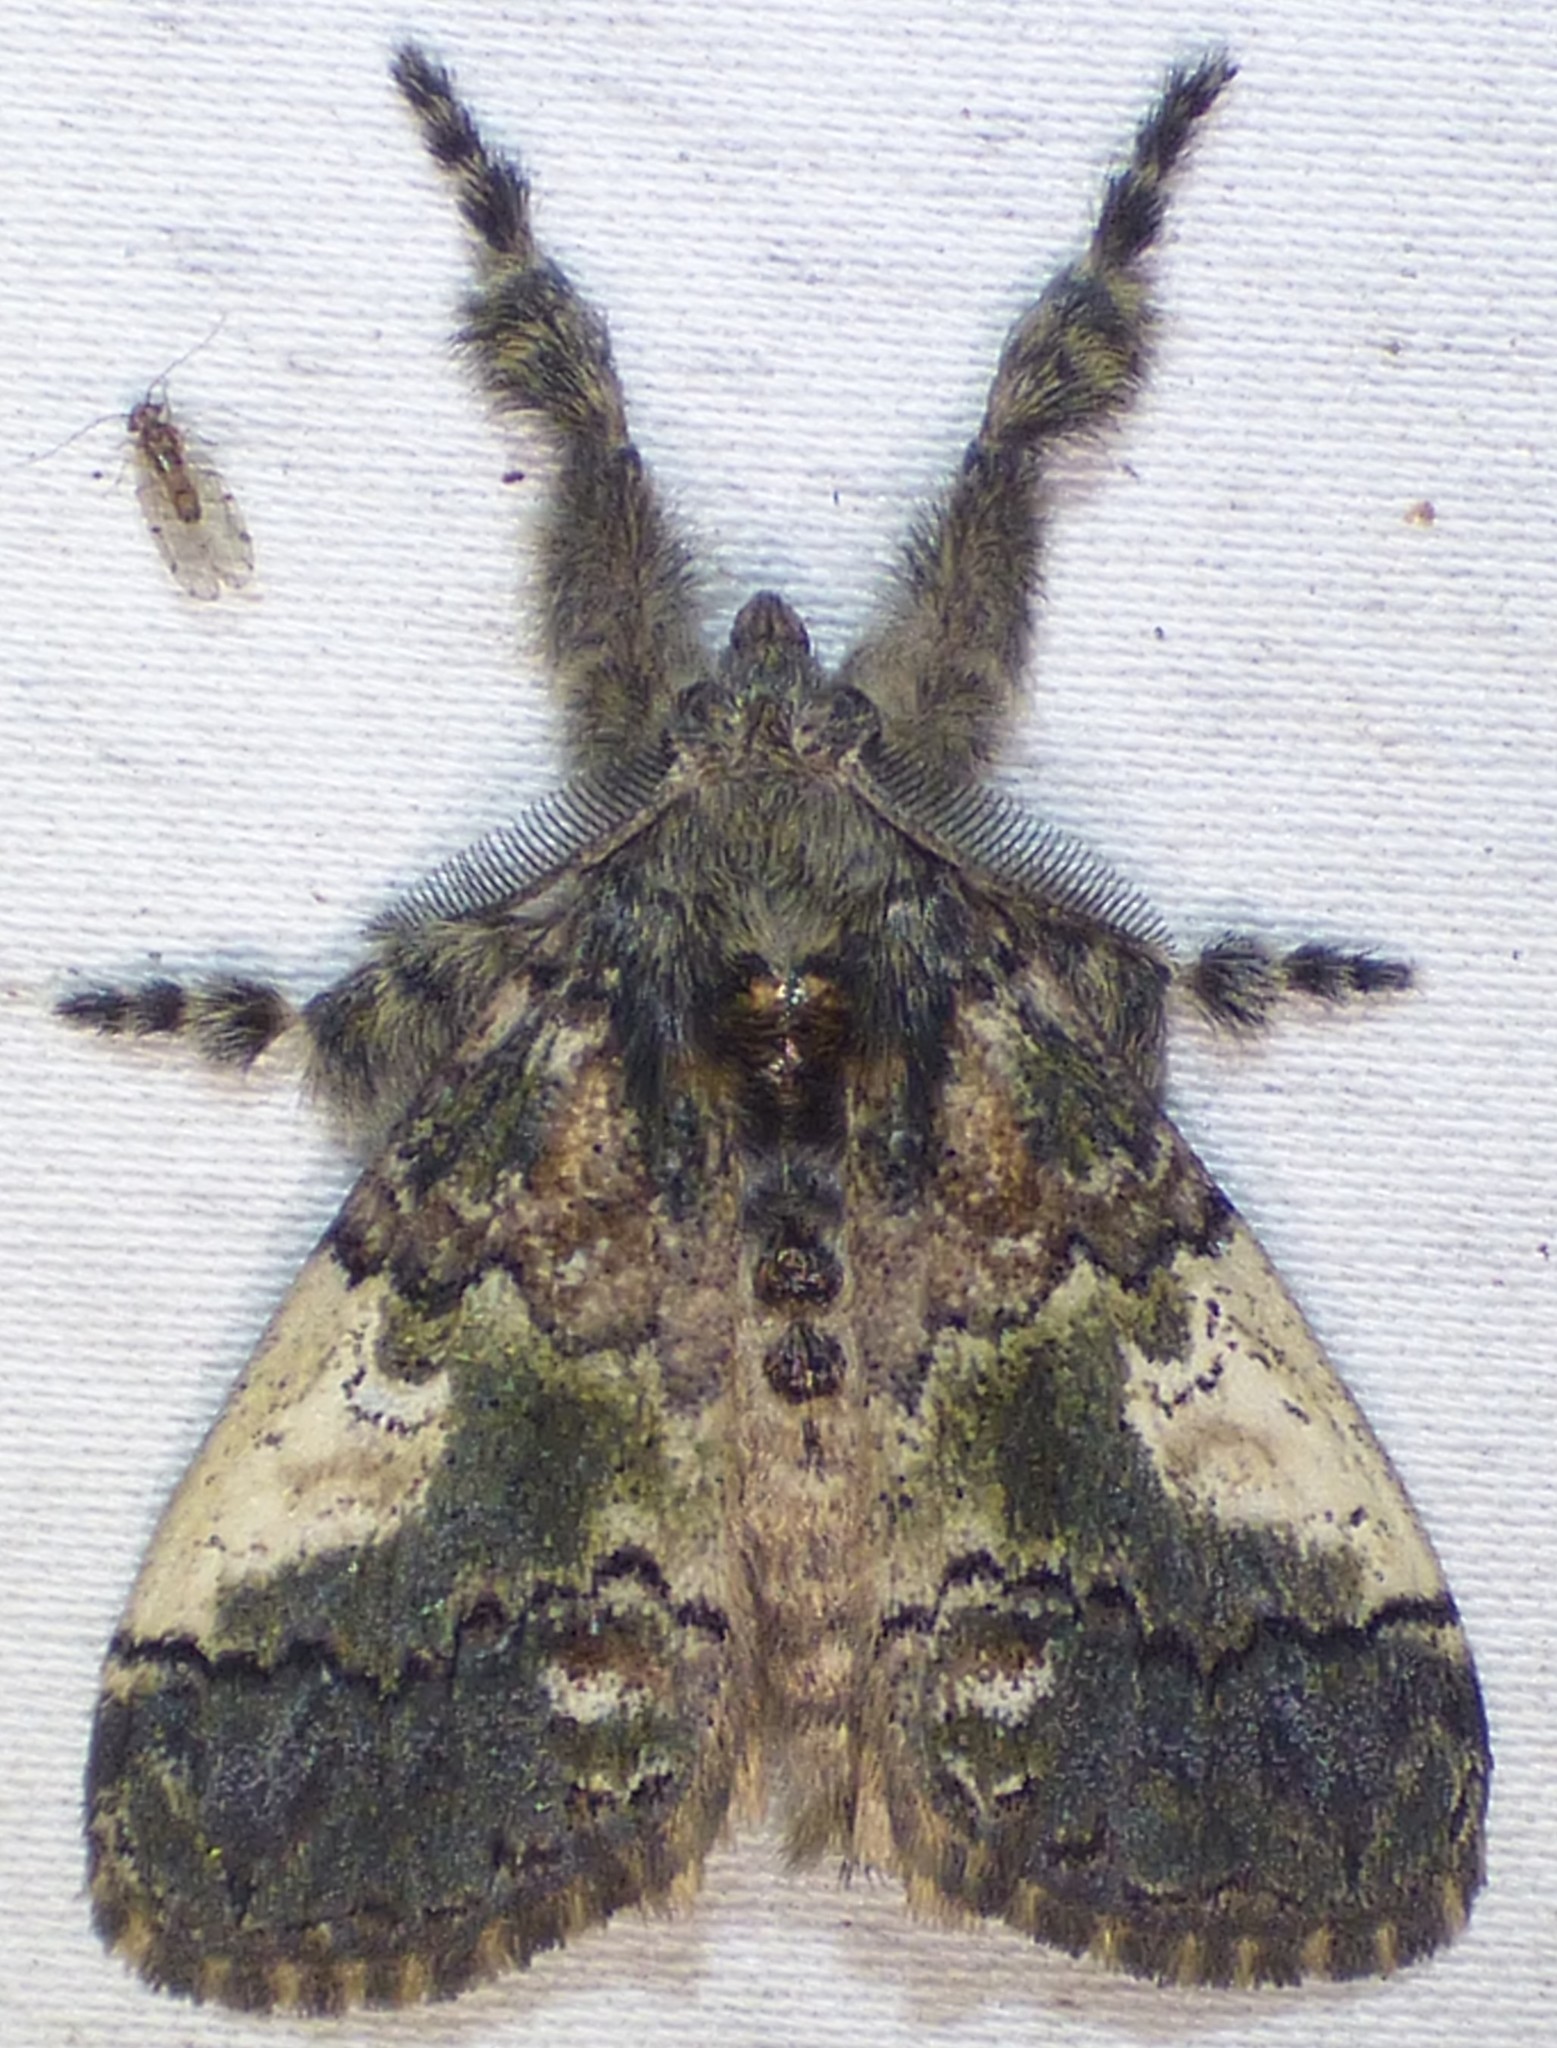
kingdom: Animalia
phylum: Arthropoda
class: Insecta
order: Lepidoptera
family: Erebidae
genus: Dasychira
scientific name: Dasychira meridionalis
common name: Southern tussock moth
